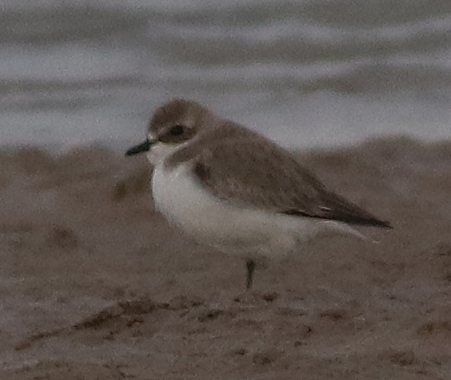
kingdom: Animalia
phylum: Chordata
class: Aves
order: Charadriiformes
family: Charadriidae
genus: Anarhynchus
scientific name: Anarhynchus
